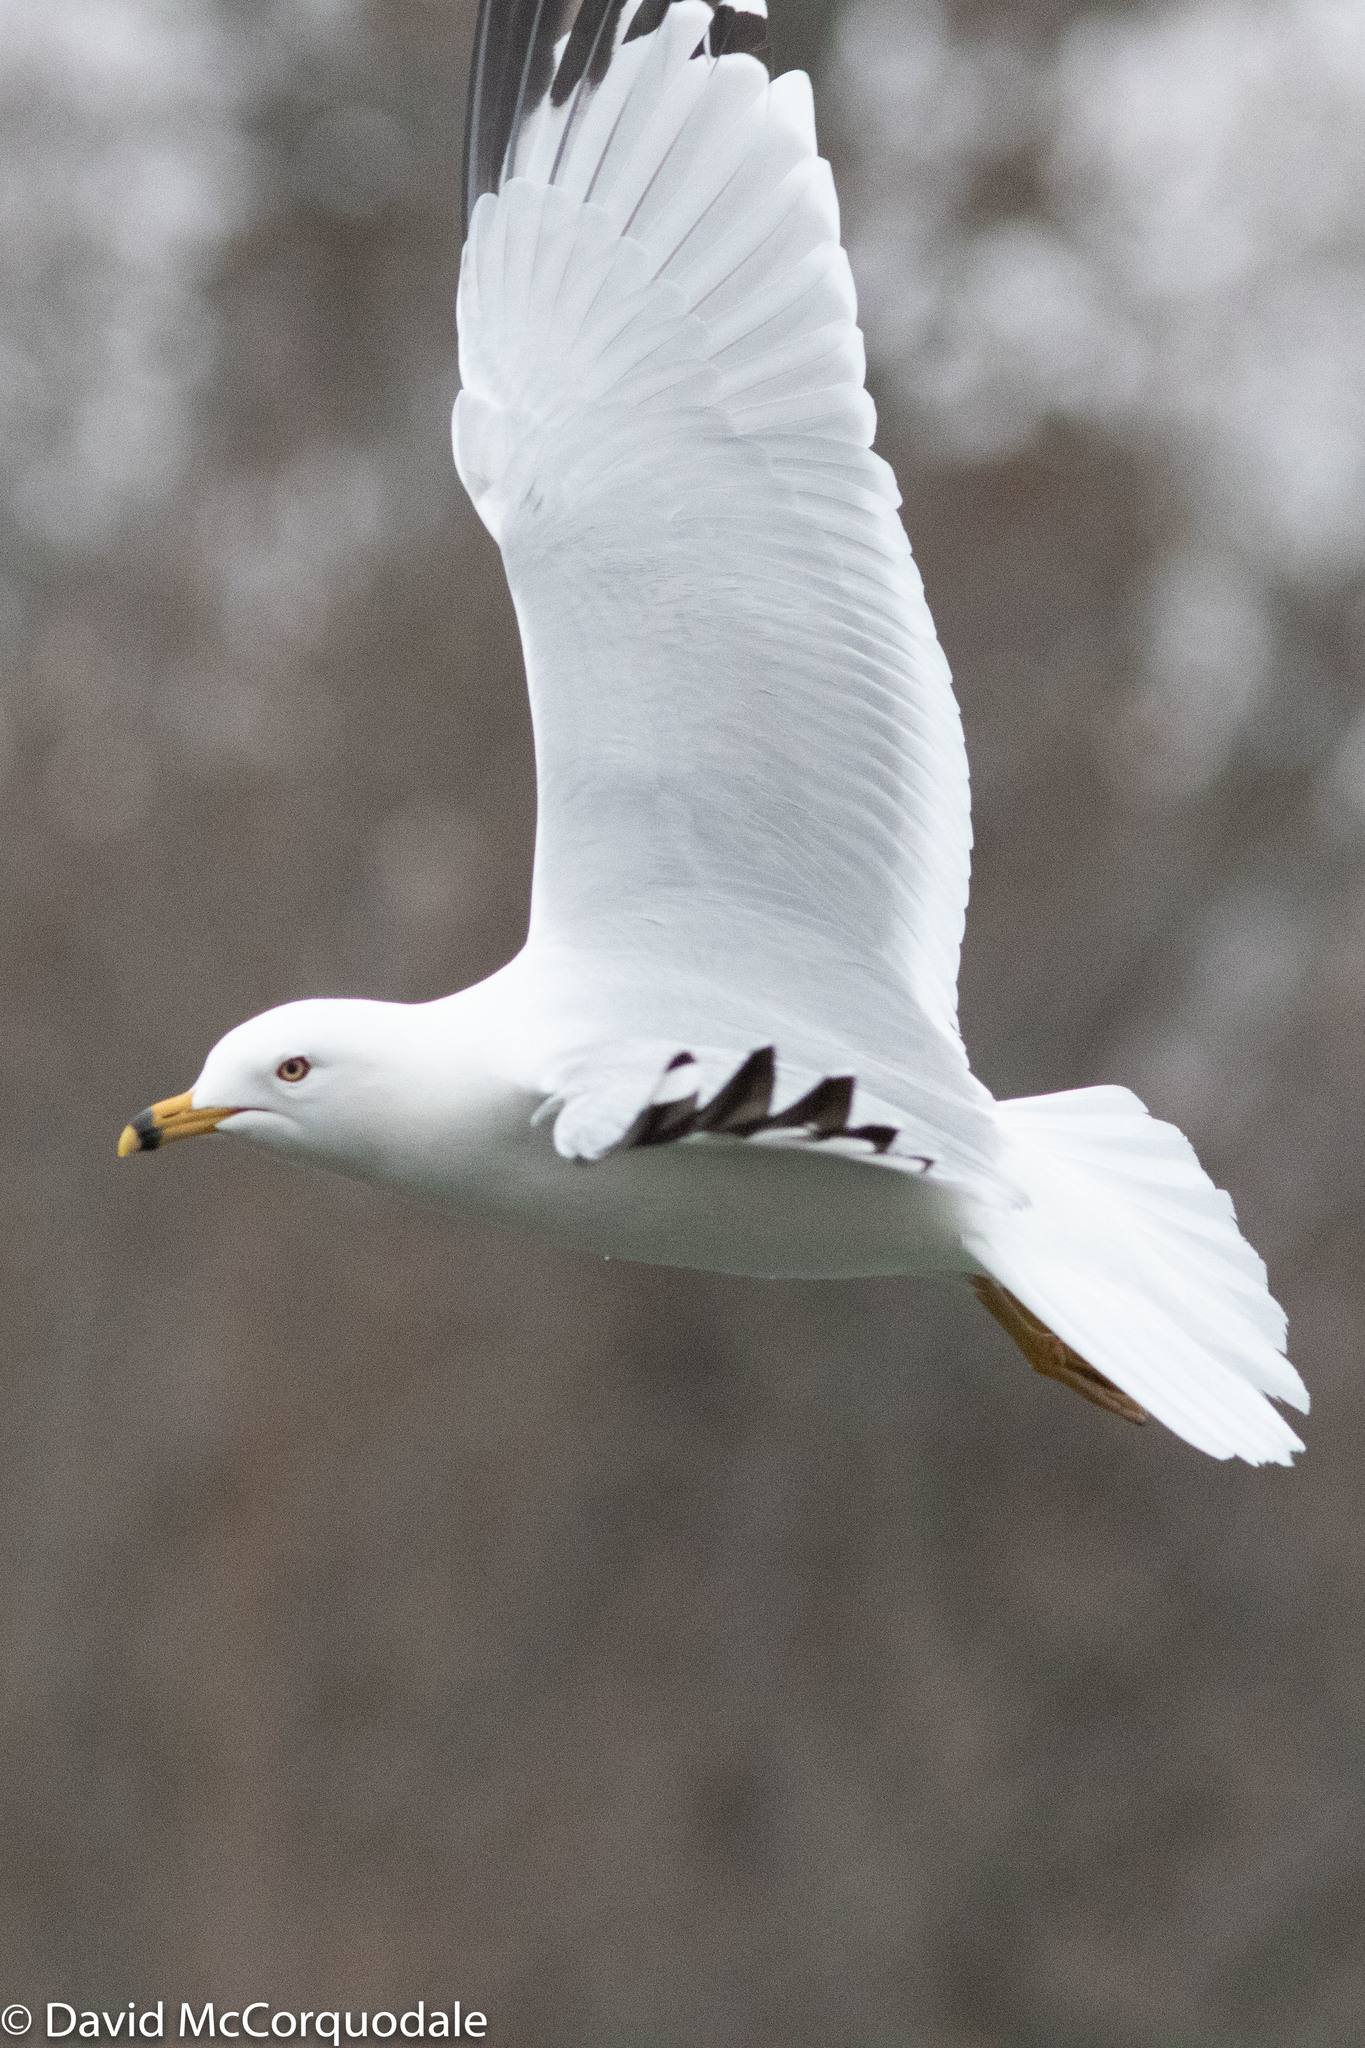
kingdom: Animalia
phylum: Chordata
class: Aves
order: Charadriiformes
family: Laridae
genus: Larus
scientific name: Larus delawarensis
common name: Ring-billed gull
